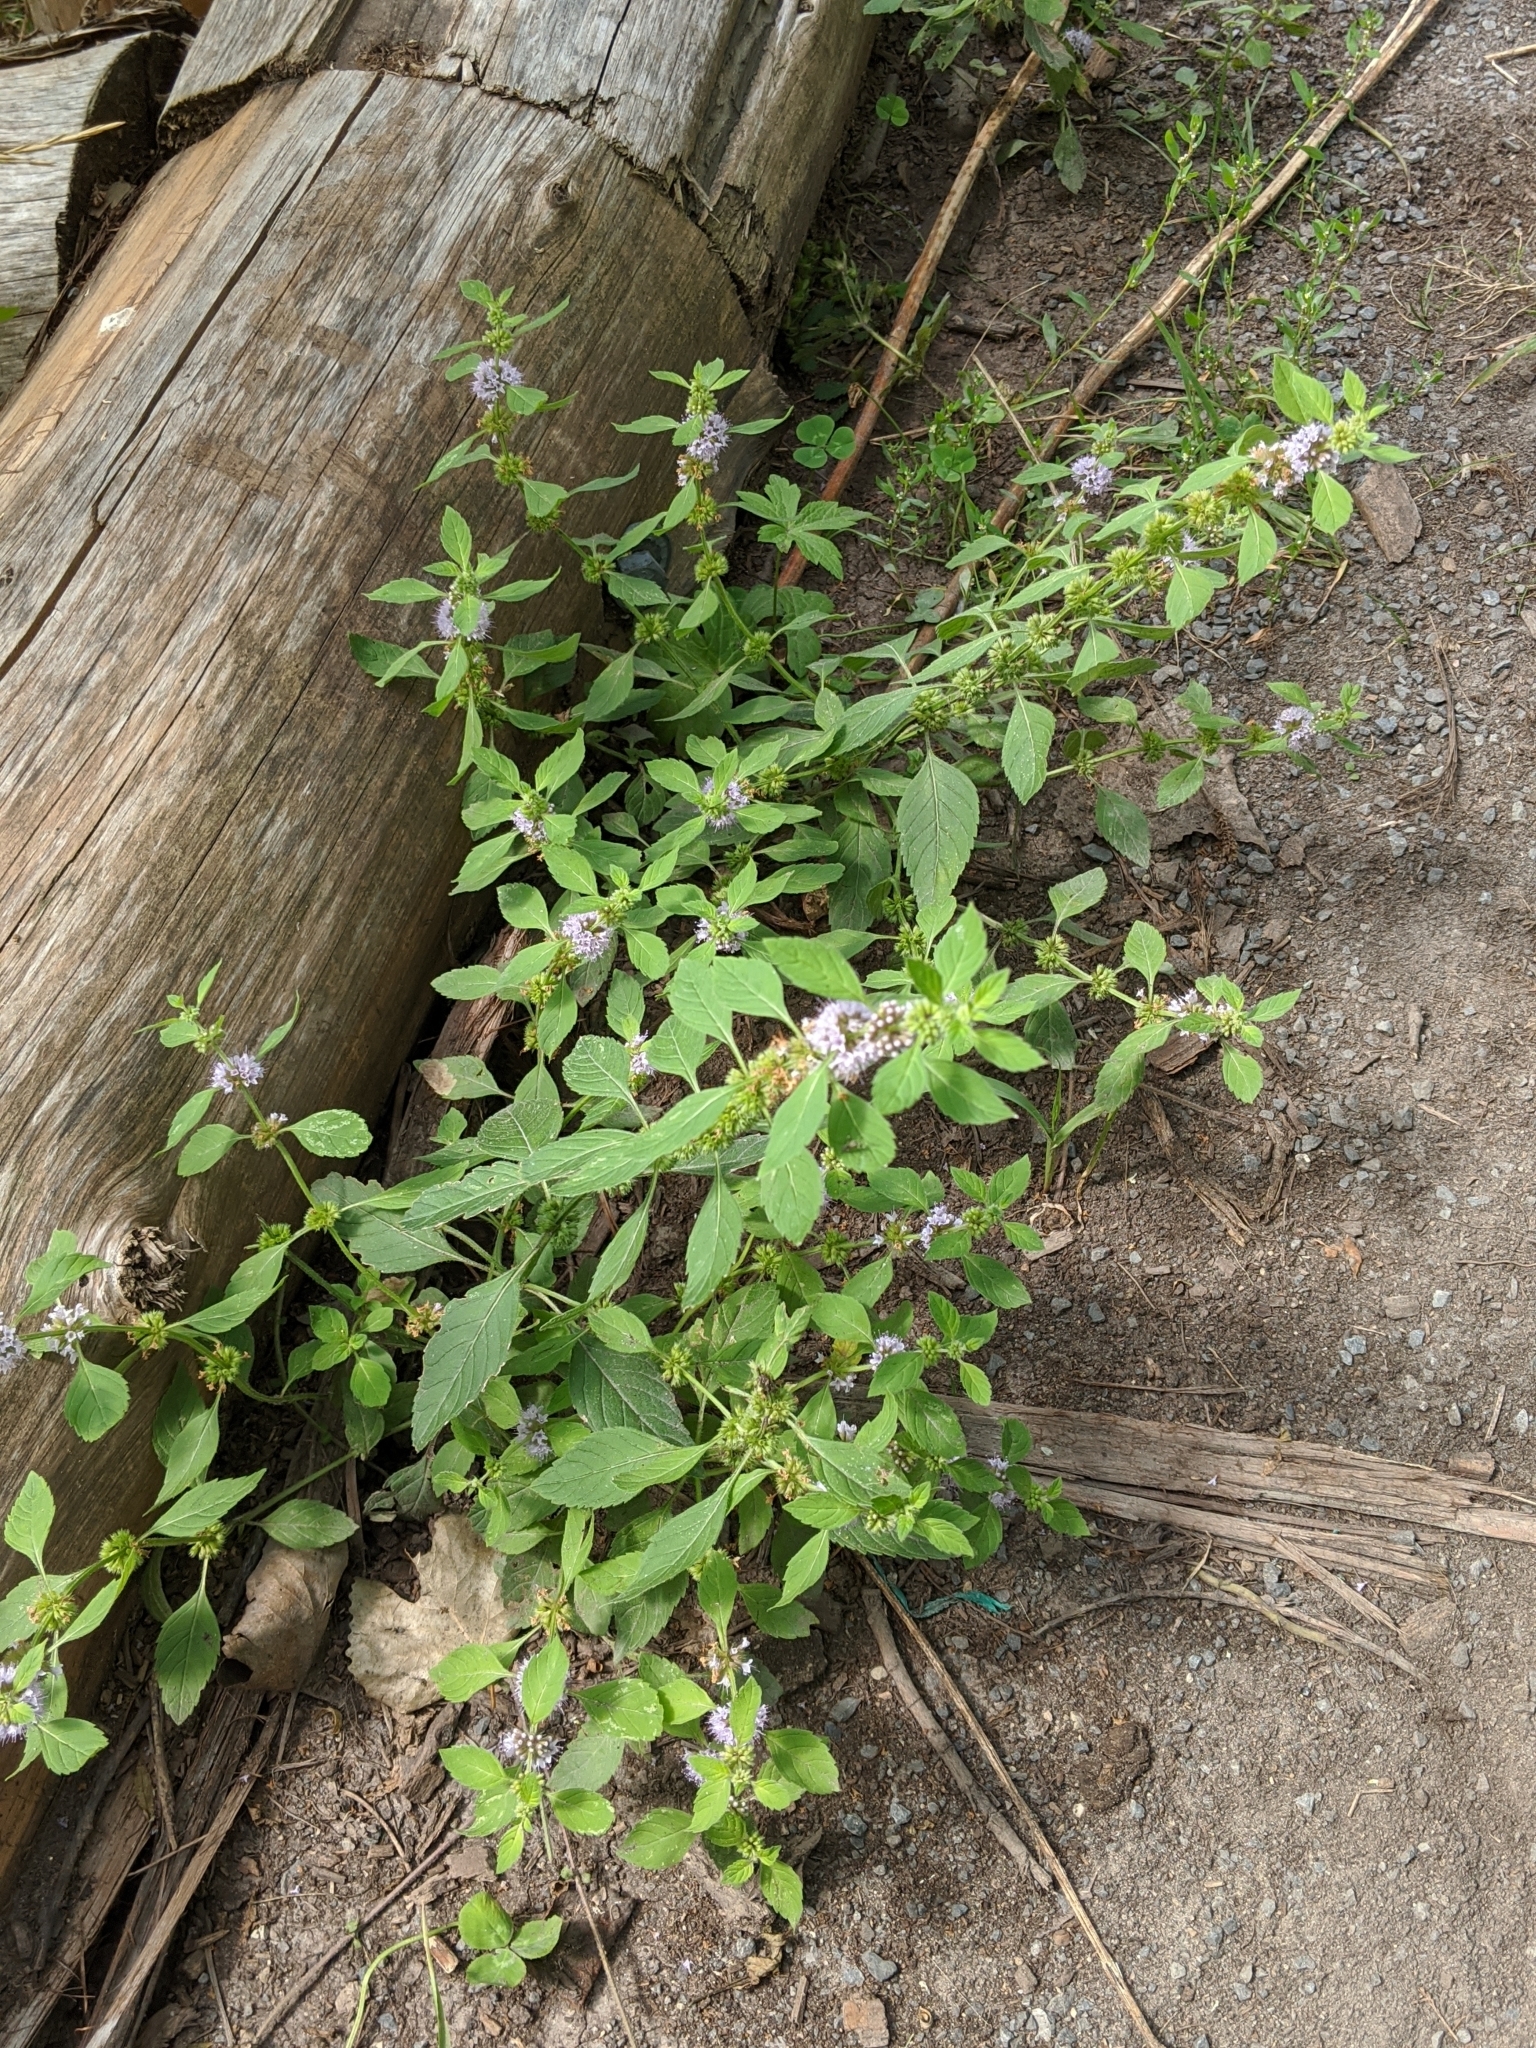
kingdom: Plantae
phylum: Tracheophyta
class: Magnoliopsida
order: Lamiales
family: Lamiaceae
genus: Mentha
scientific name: Mentha canadensis
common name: American corn mint
